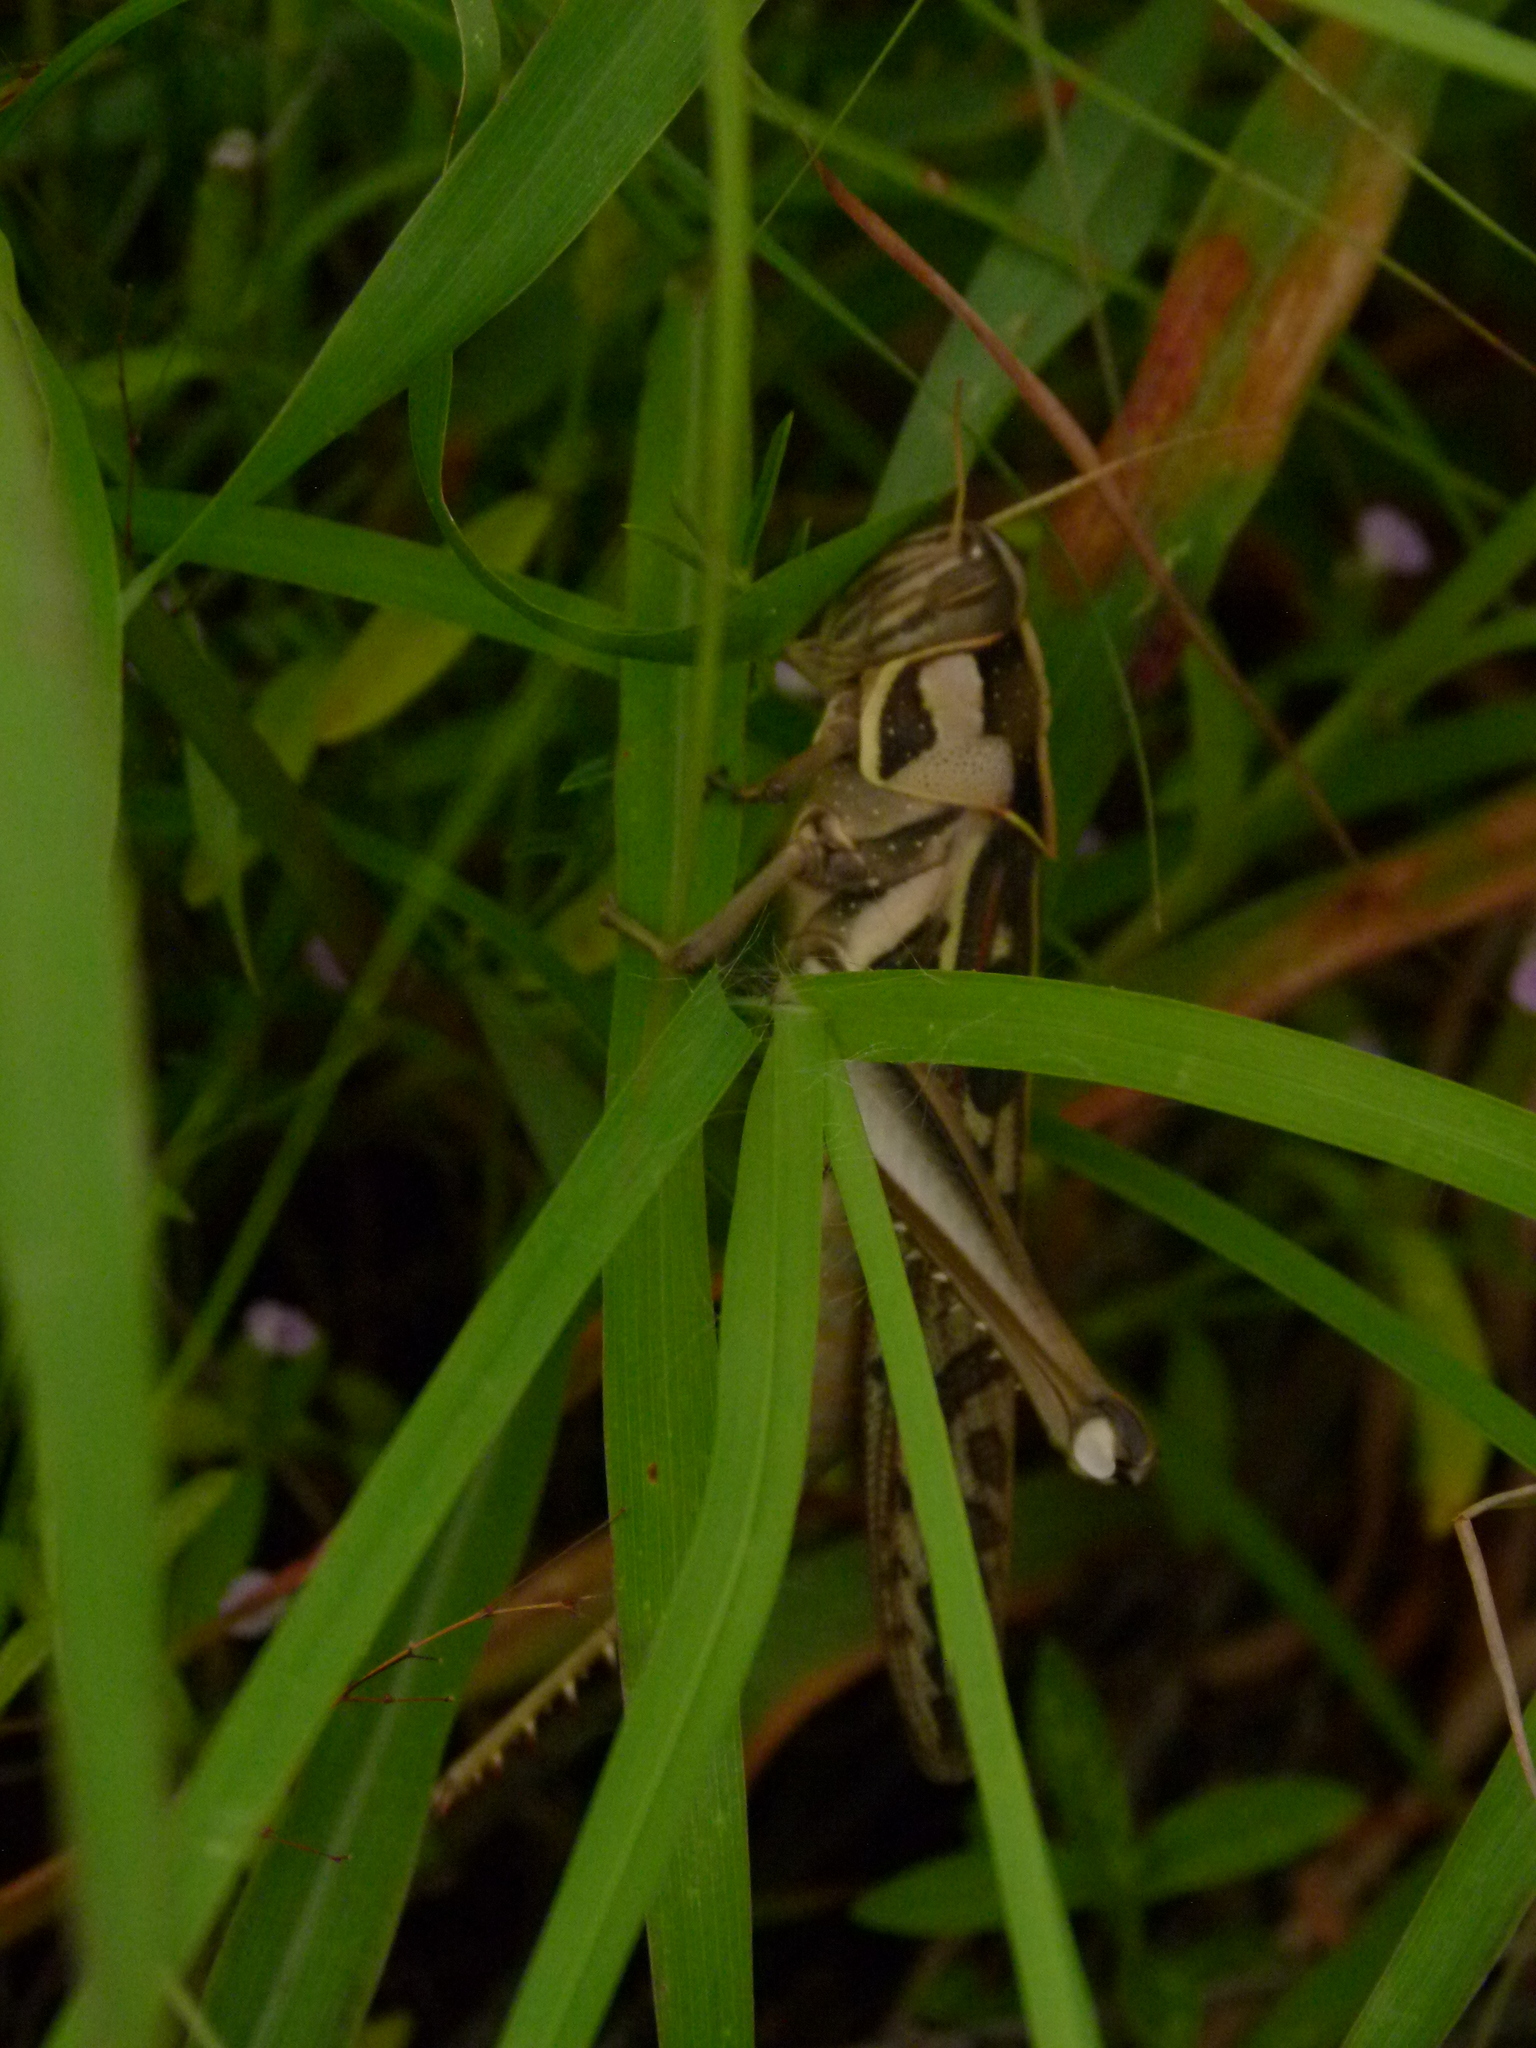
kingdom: Animalia
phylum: Arthropoda
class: Insecta
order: Orthoptera
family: Acrididae
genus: Cyrtacanthacris
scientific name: Cyrtacanthacris tatarica
